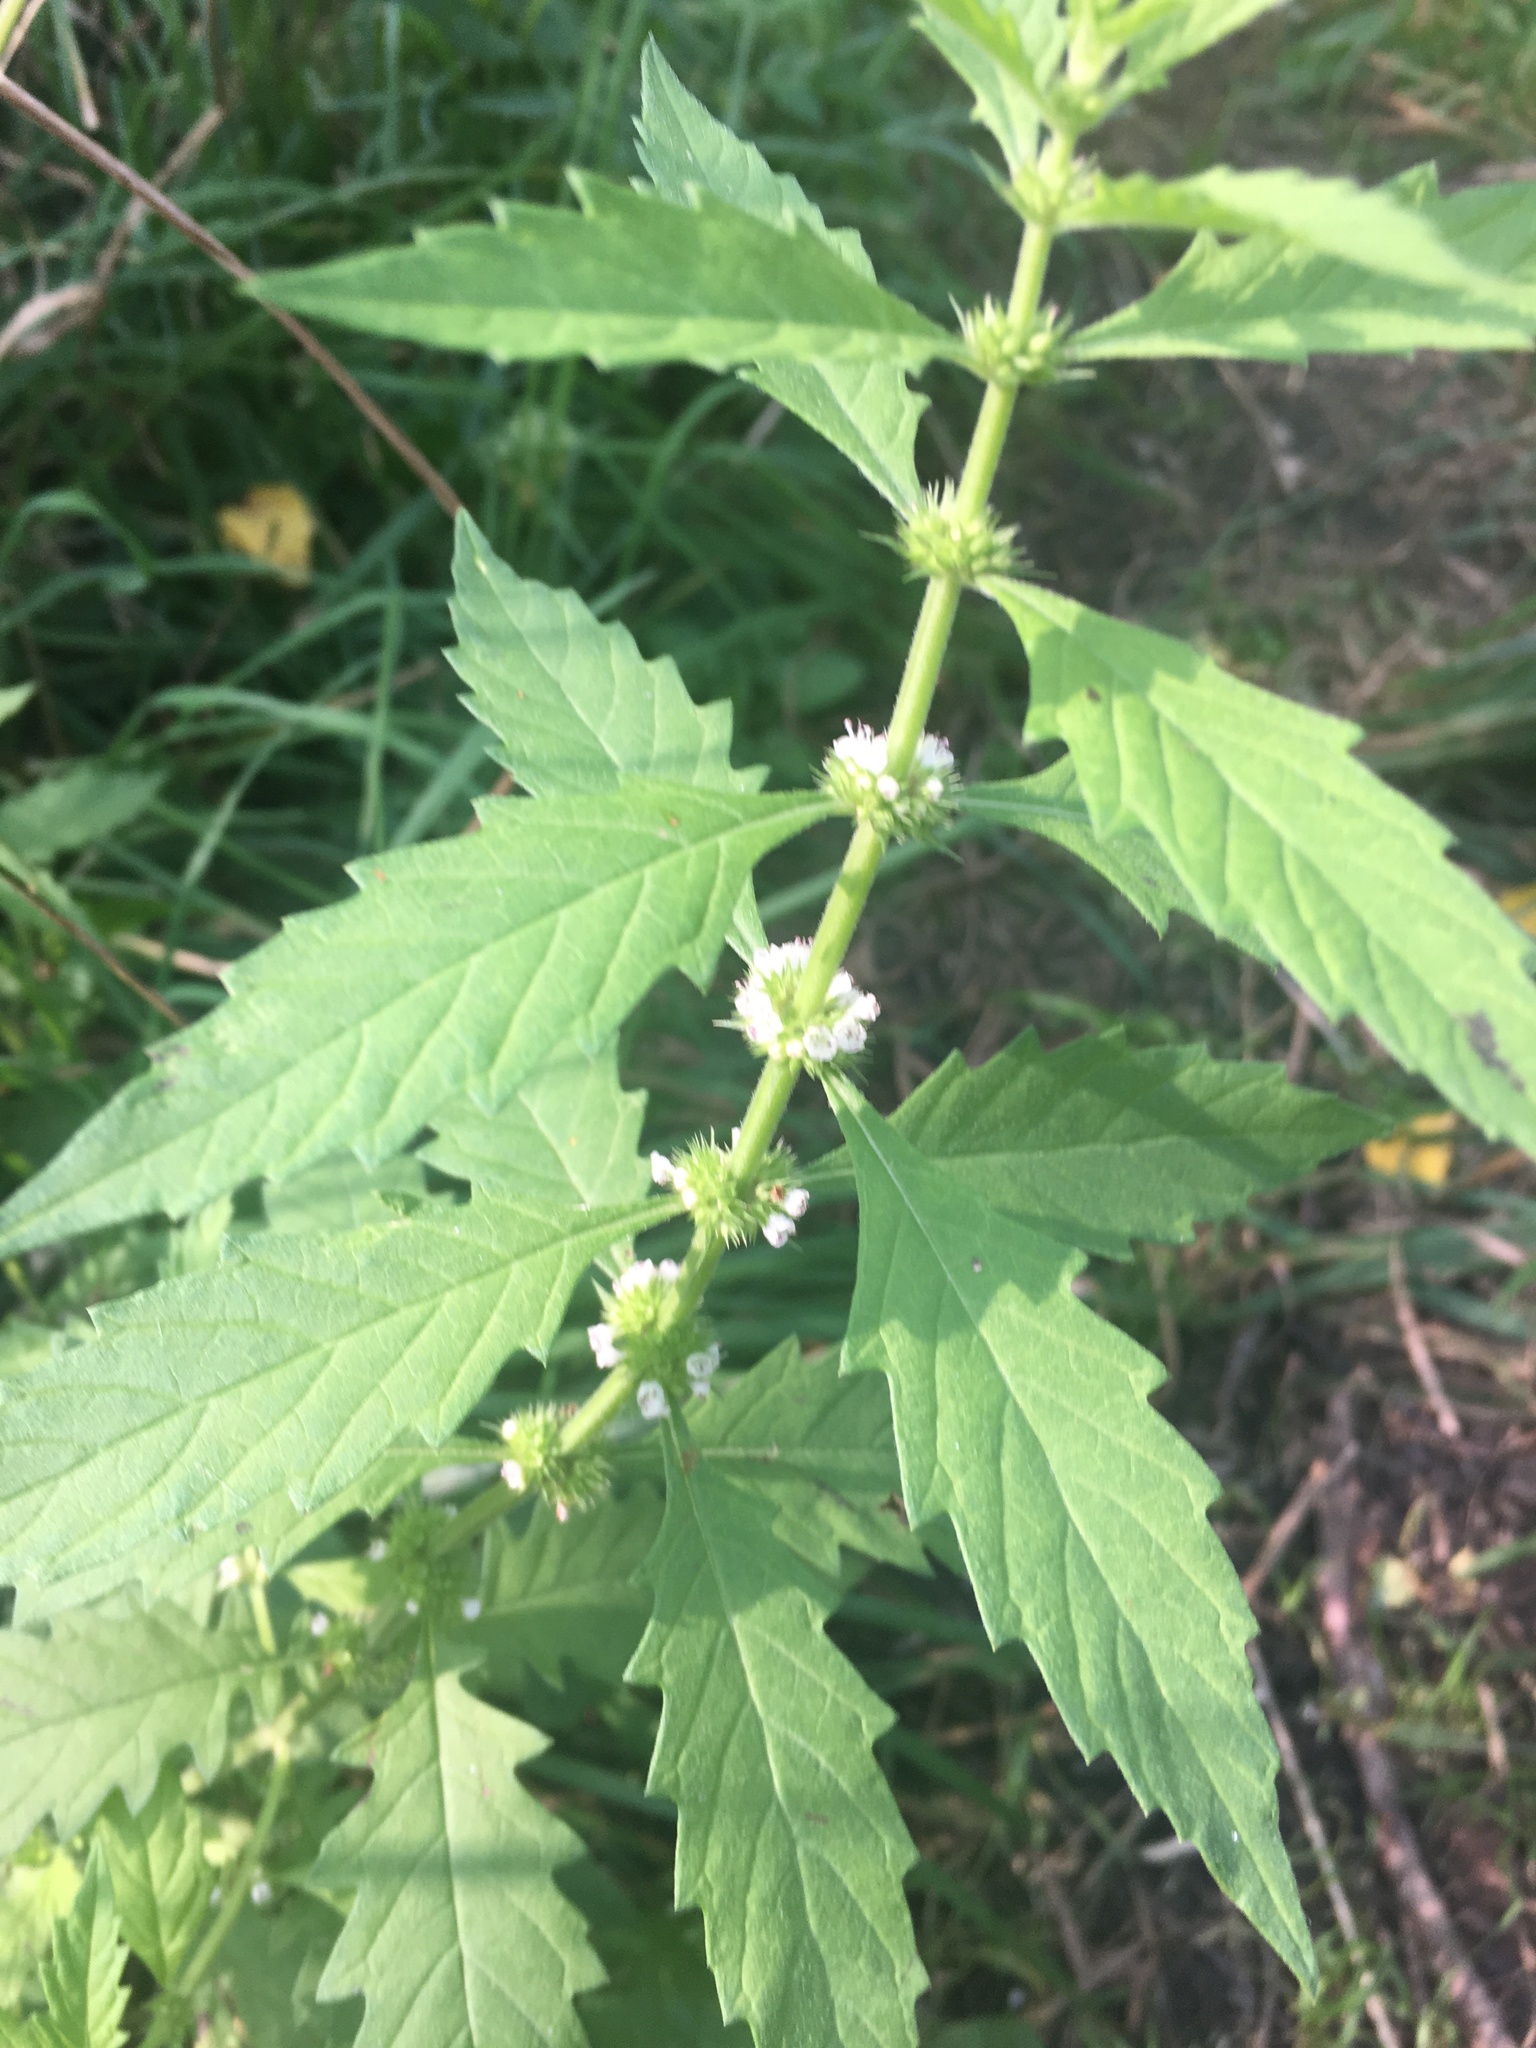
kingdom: Plantae
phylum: Tracheophyta
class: Magnoliopsida
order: Lamiales
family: Lamiaceae
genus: Lycopus
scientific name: Lycopus europaeus
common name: European bugleweed
